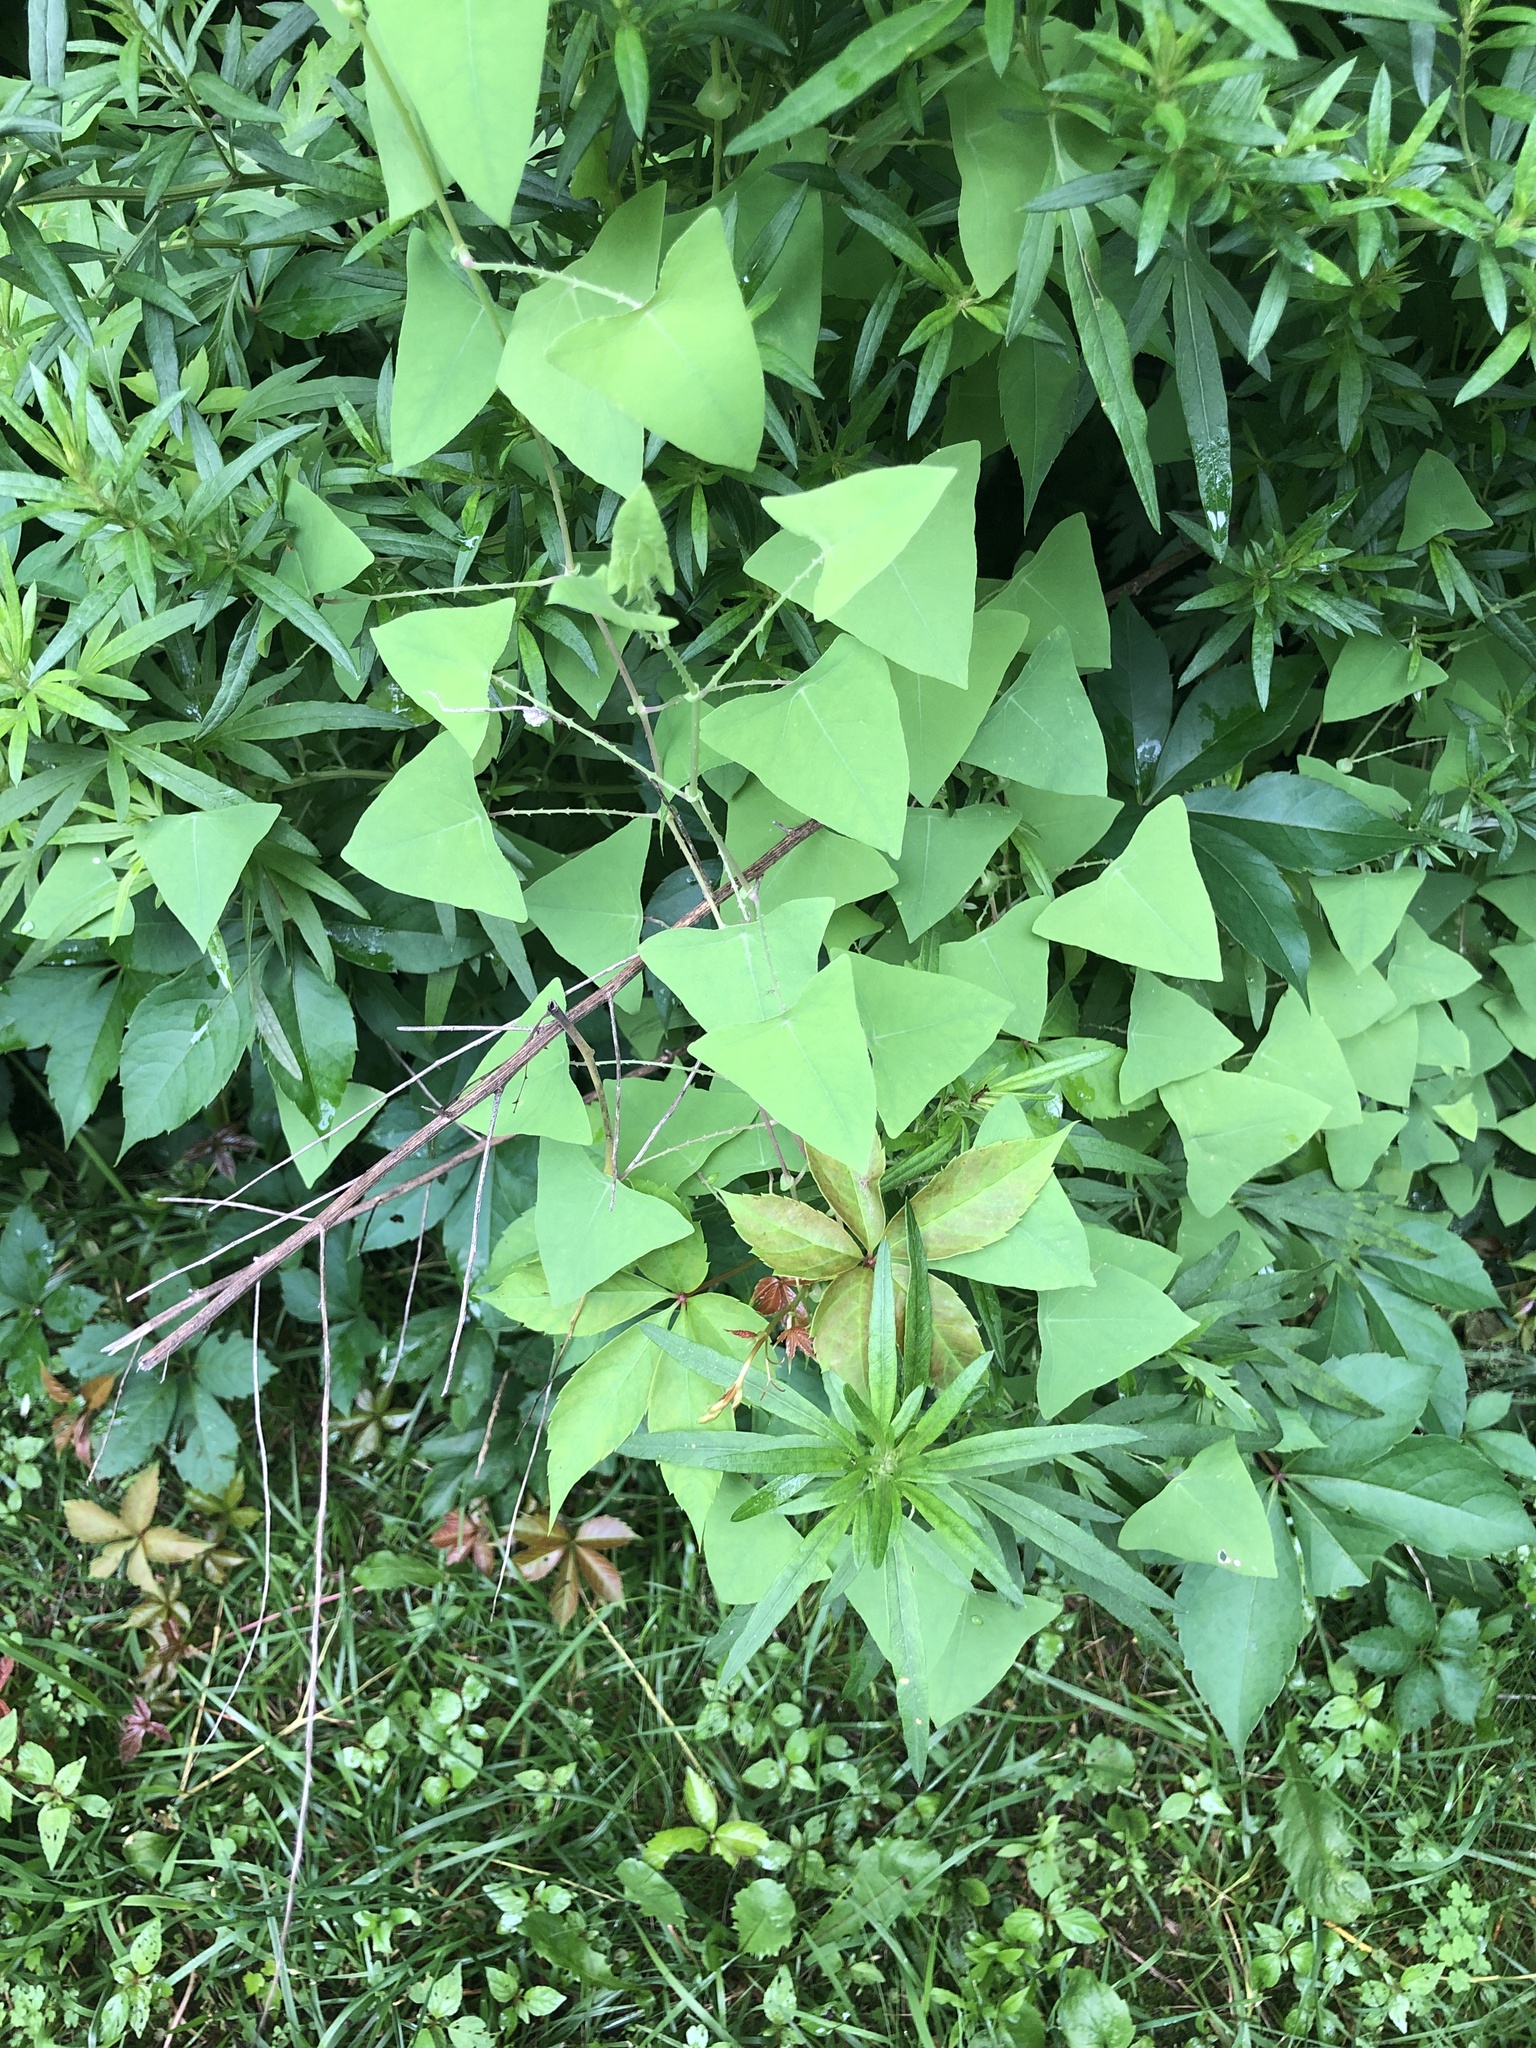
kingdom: Plantae
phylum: Tracheophyta
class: Magnoliopsida
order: Caryophyllales
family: Polygonaceae
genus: Persicaria
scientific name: Persicaria perfoliata
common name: Asiatic tearthumb
